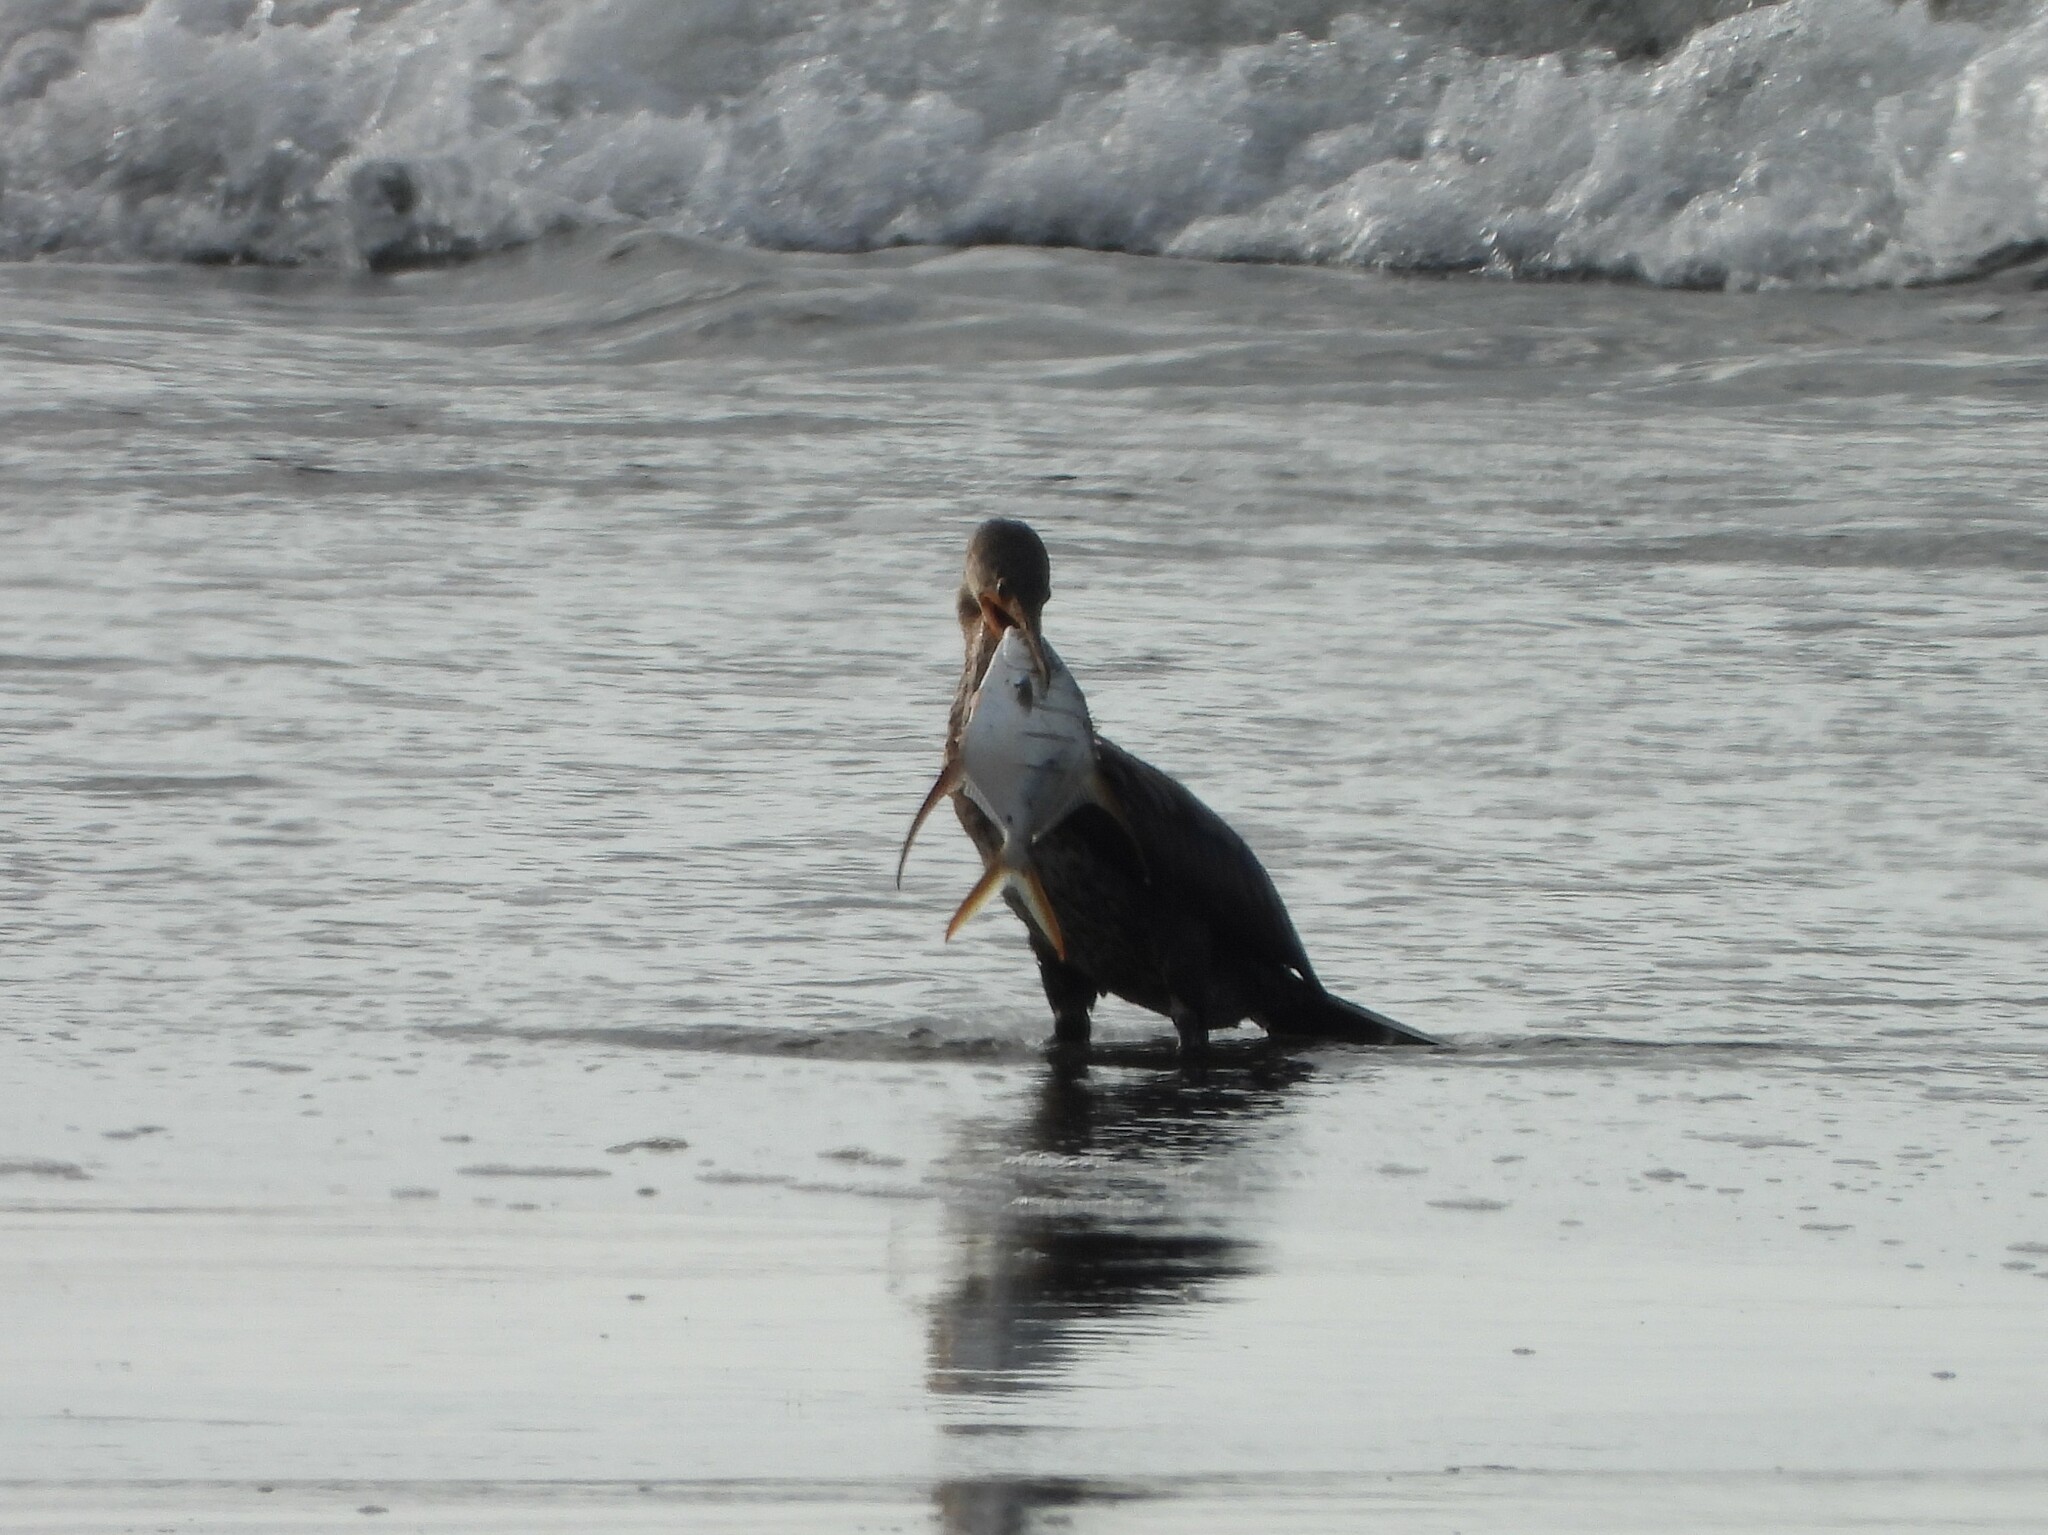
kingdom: Animalia
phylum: Chordata
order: Perciformes
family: Carangidae
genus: Trachinotus
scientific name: Trachinotus rhodopus
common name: Gafftopsail pompano
